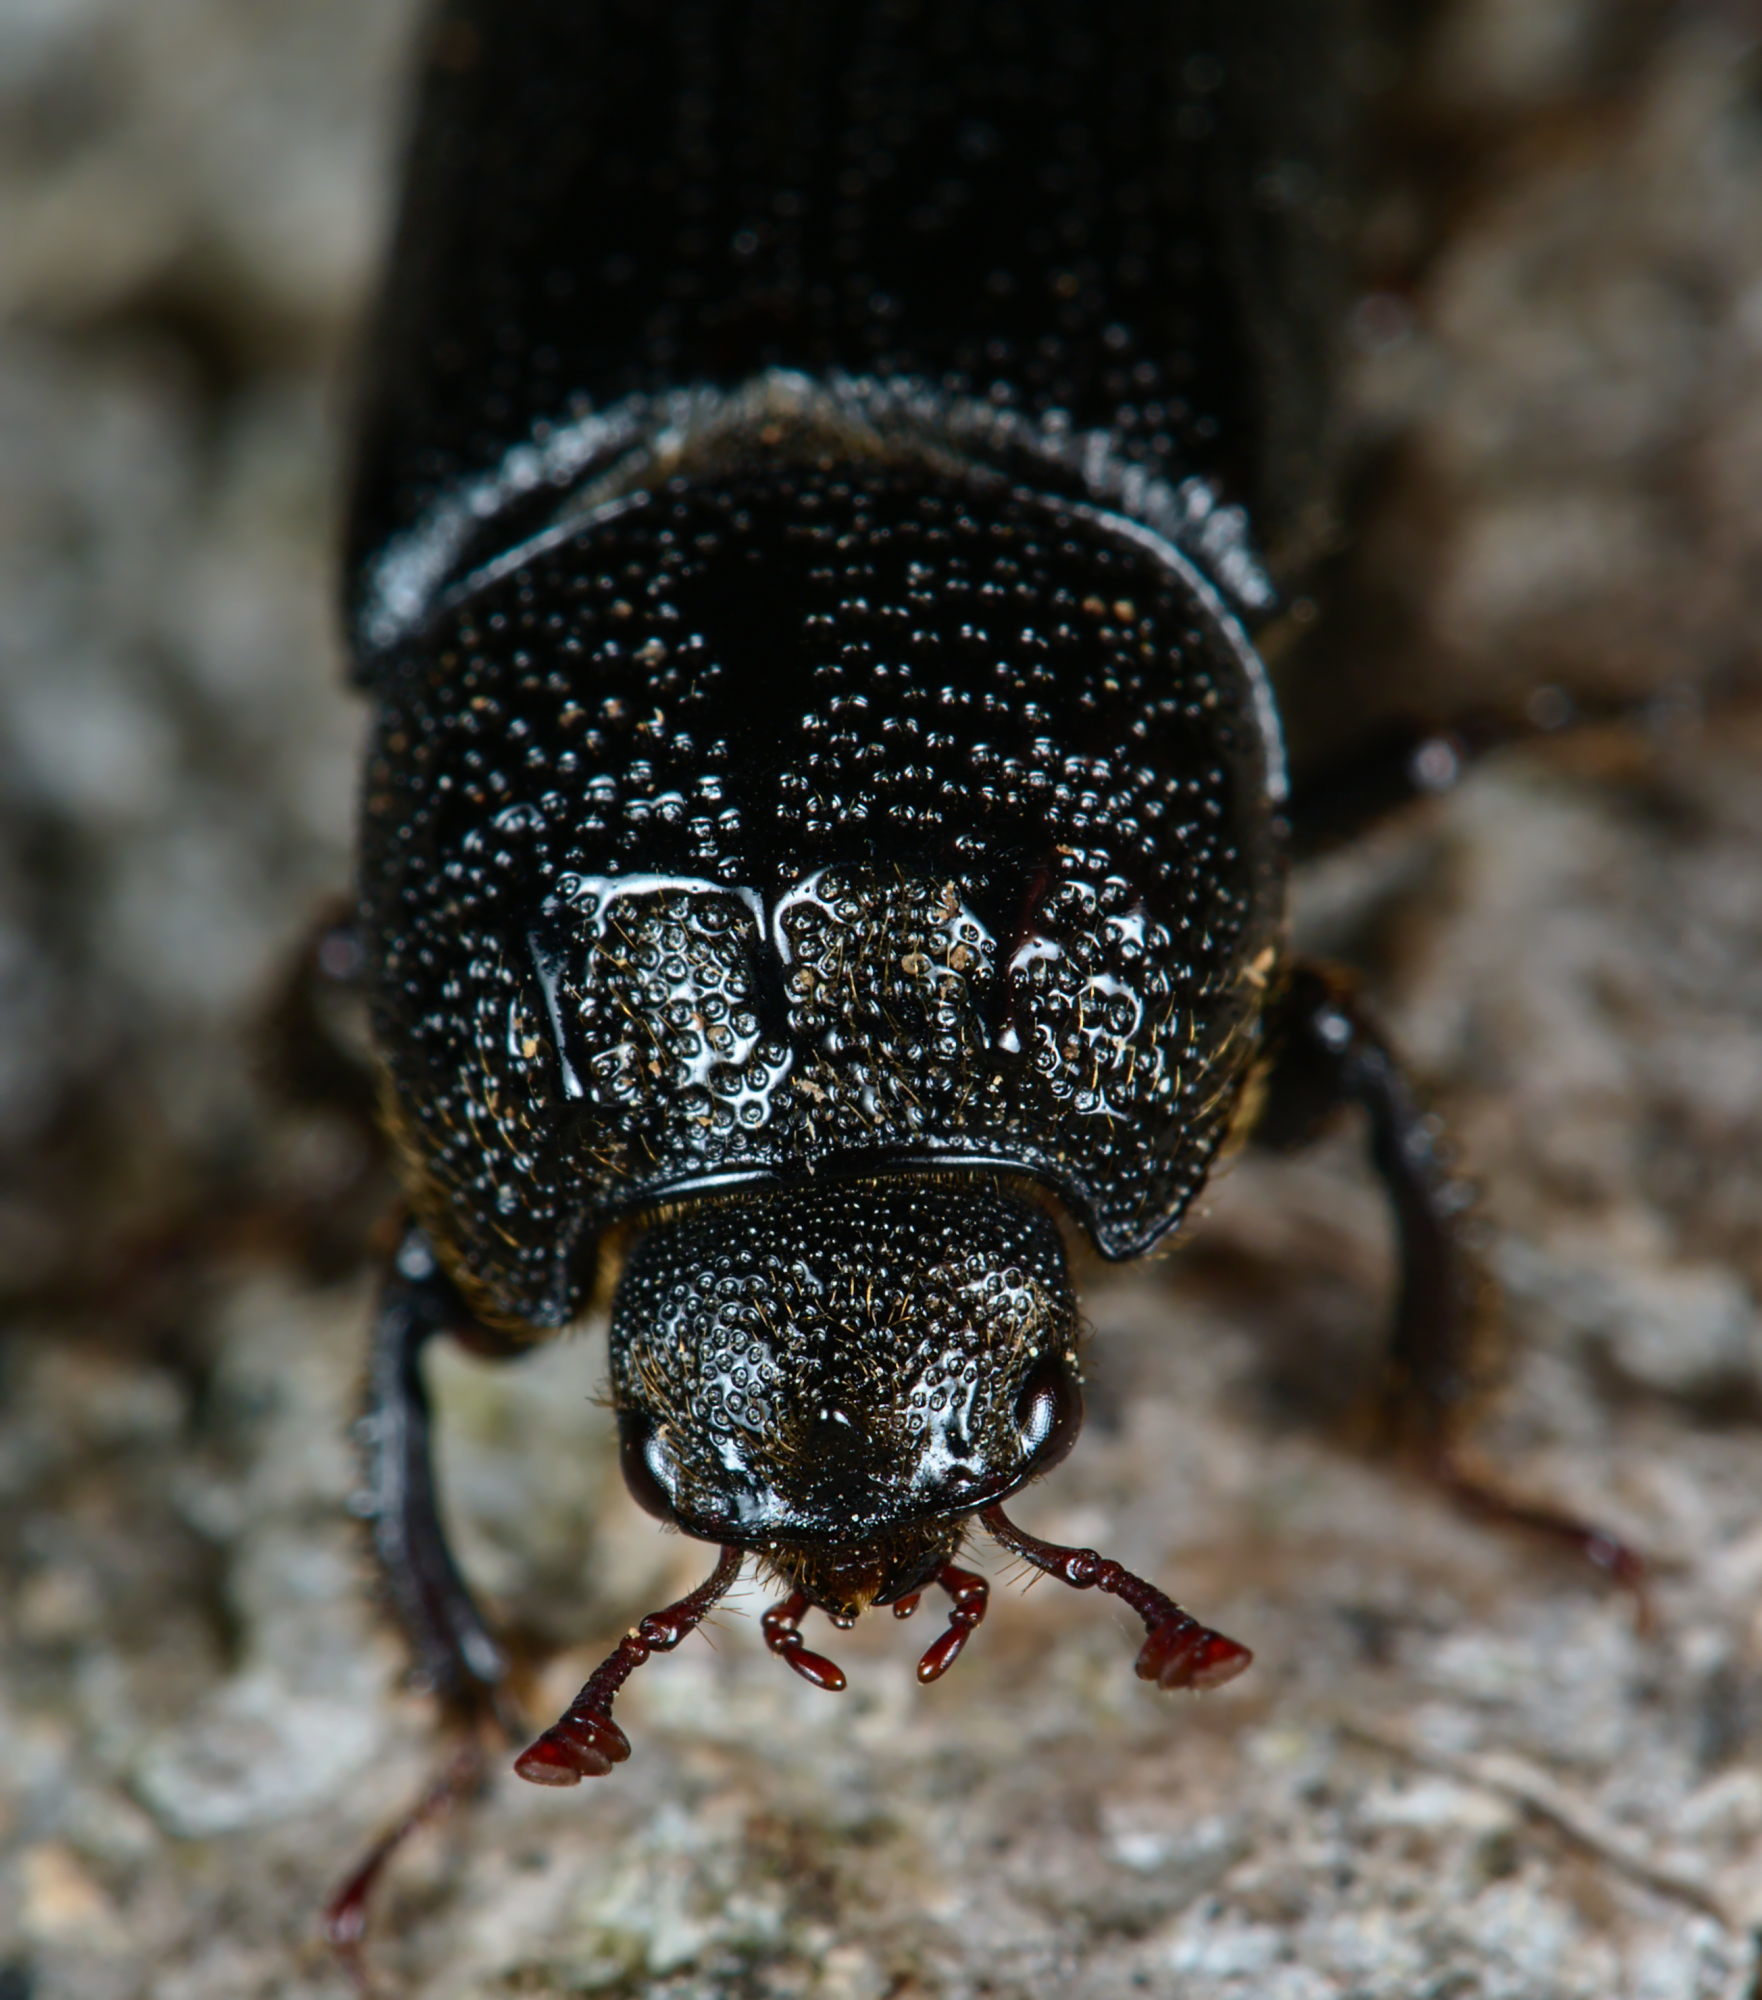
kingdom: Animalia
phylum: Arthropoda
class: Insecta
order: Coleoptera
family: Lucanidae
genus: Sinodendron
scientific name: Sinodendron cylindricum
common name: Rhinoceros beetle
